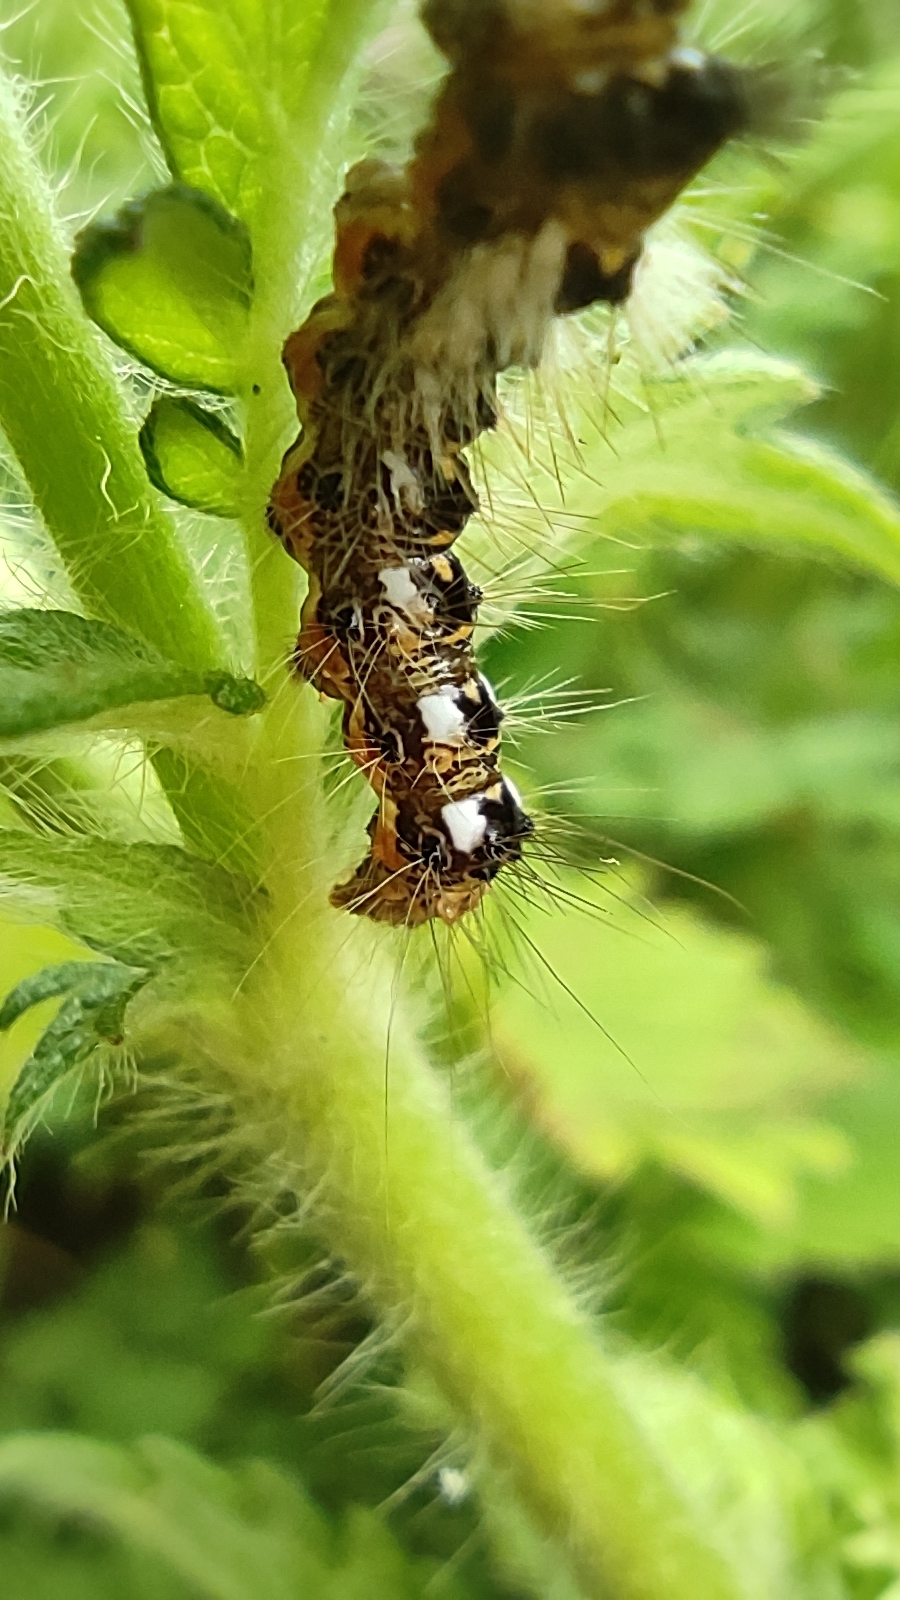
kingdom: Animalia
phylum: Arthropoda
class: Insecta
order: Lepidoptera
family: Noctuidae
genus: Acronicta
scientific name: Acronicta rumicis
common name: Knot grass
